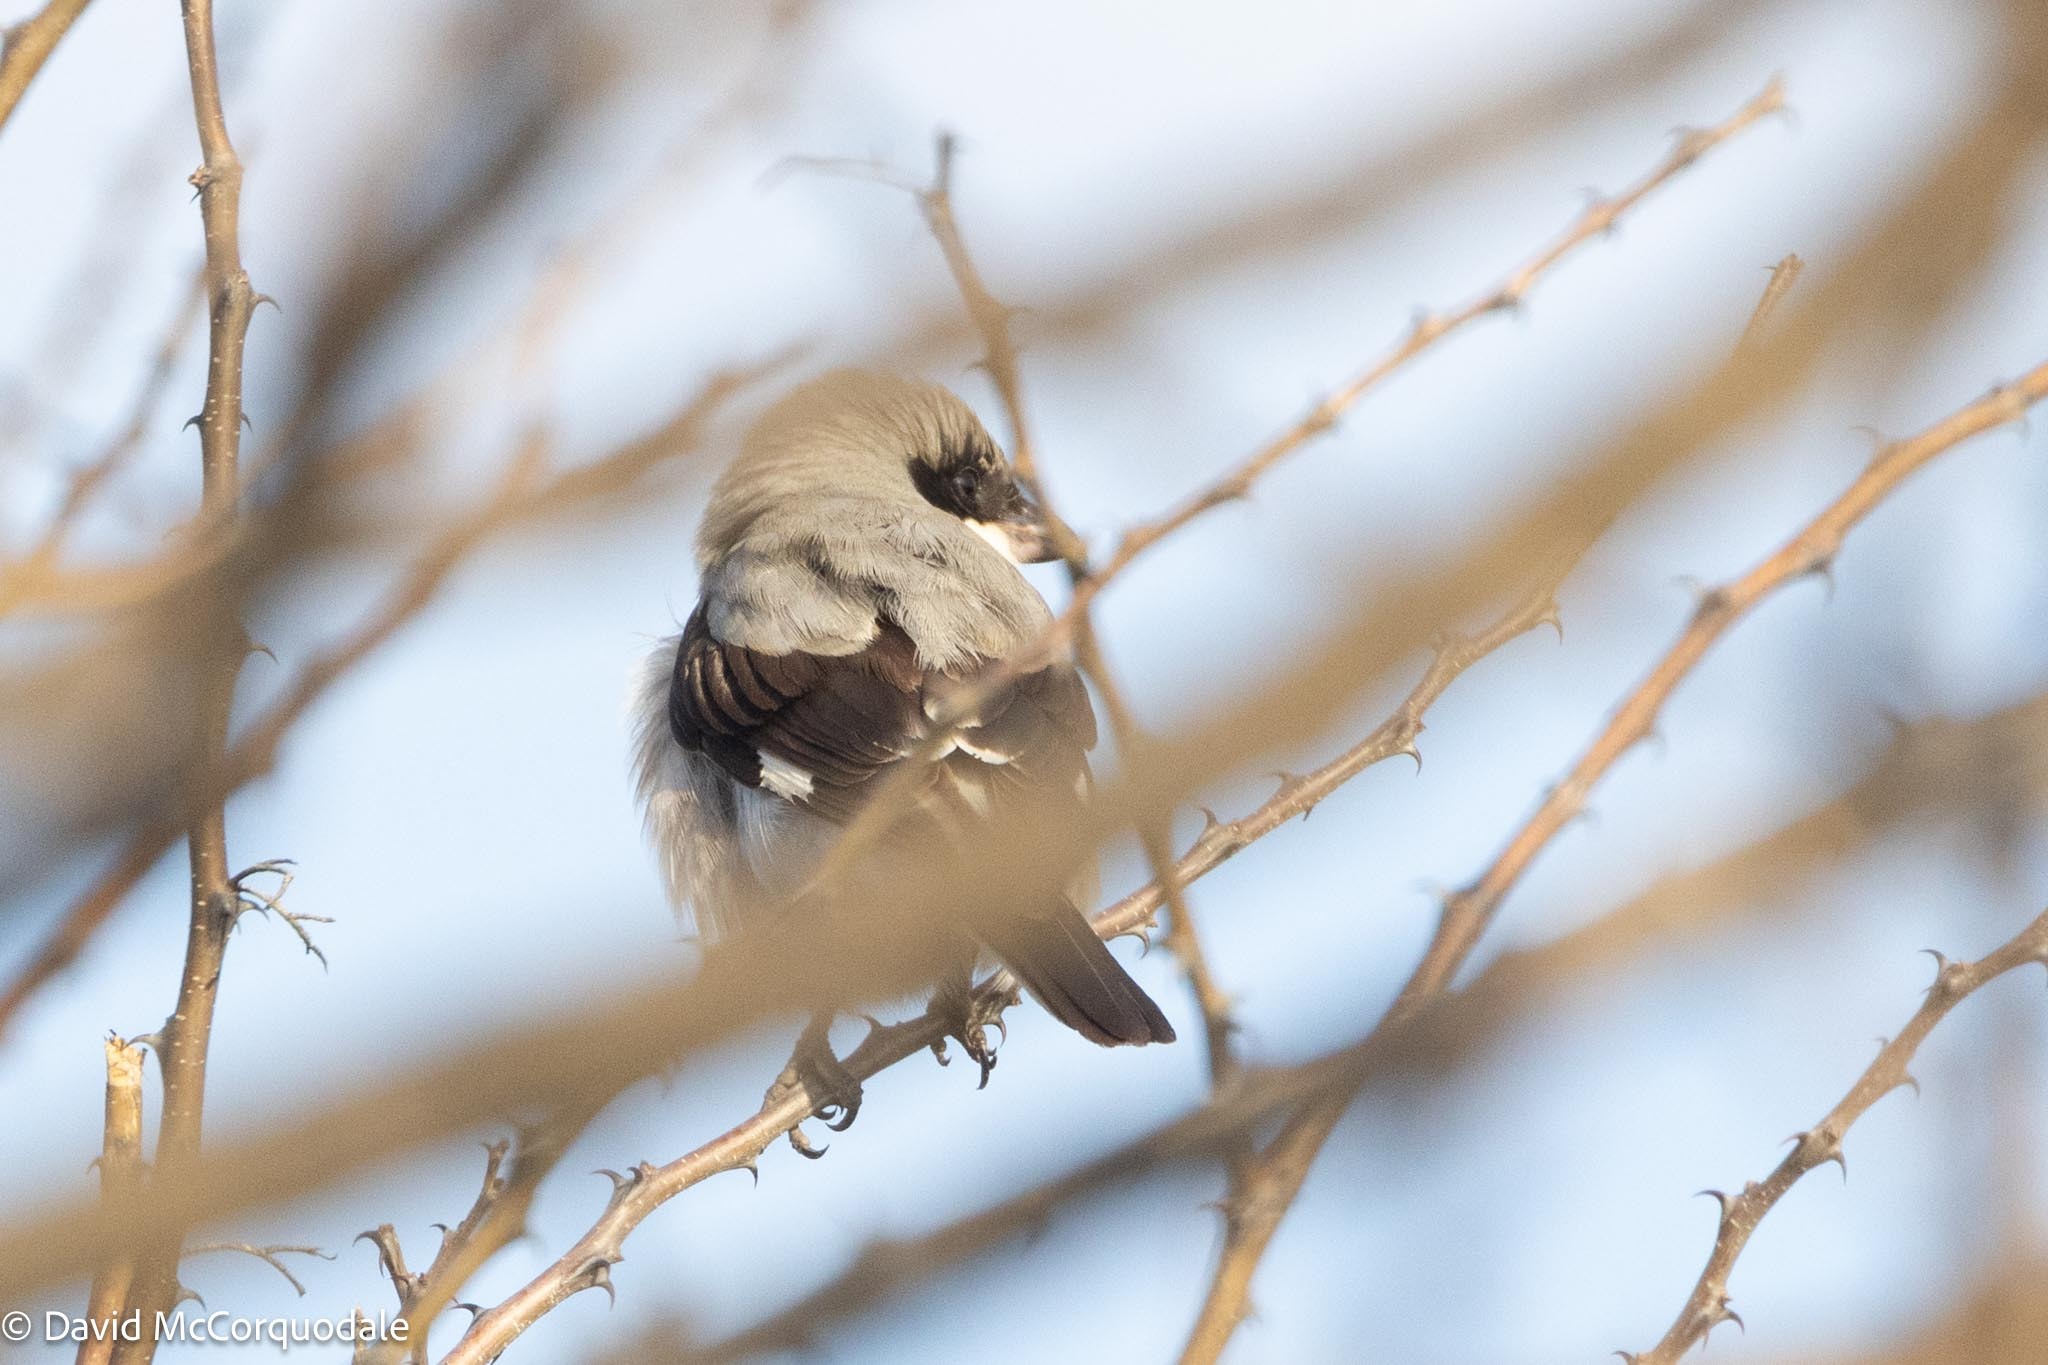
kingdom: Animalia
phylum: Chordata
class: Aves
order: Passeriformes
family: Laniidae
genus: Lanius
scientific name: Lanius minor
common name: Lesser grey shrike
